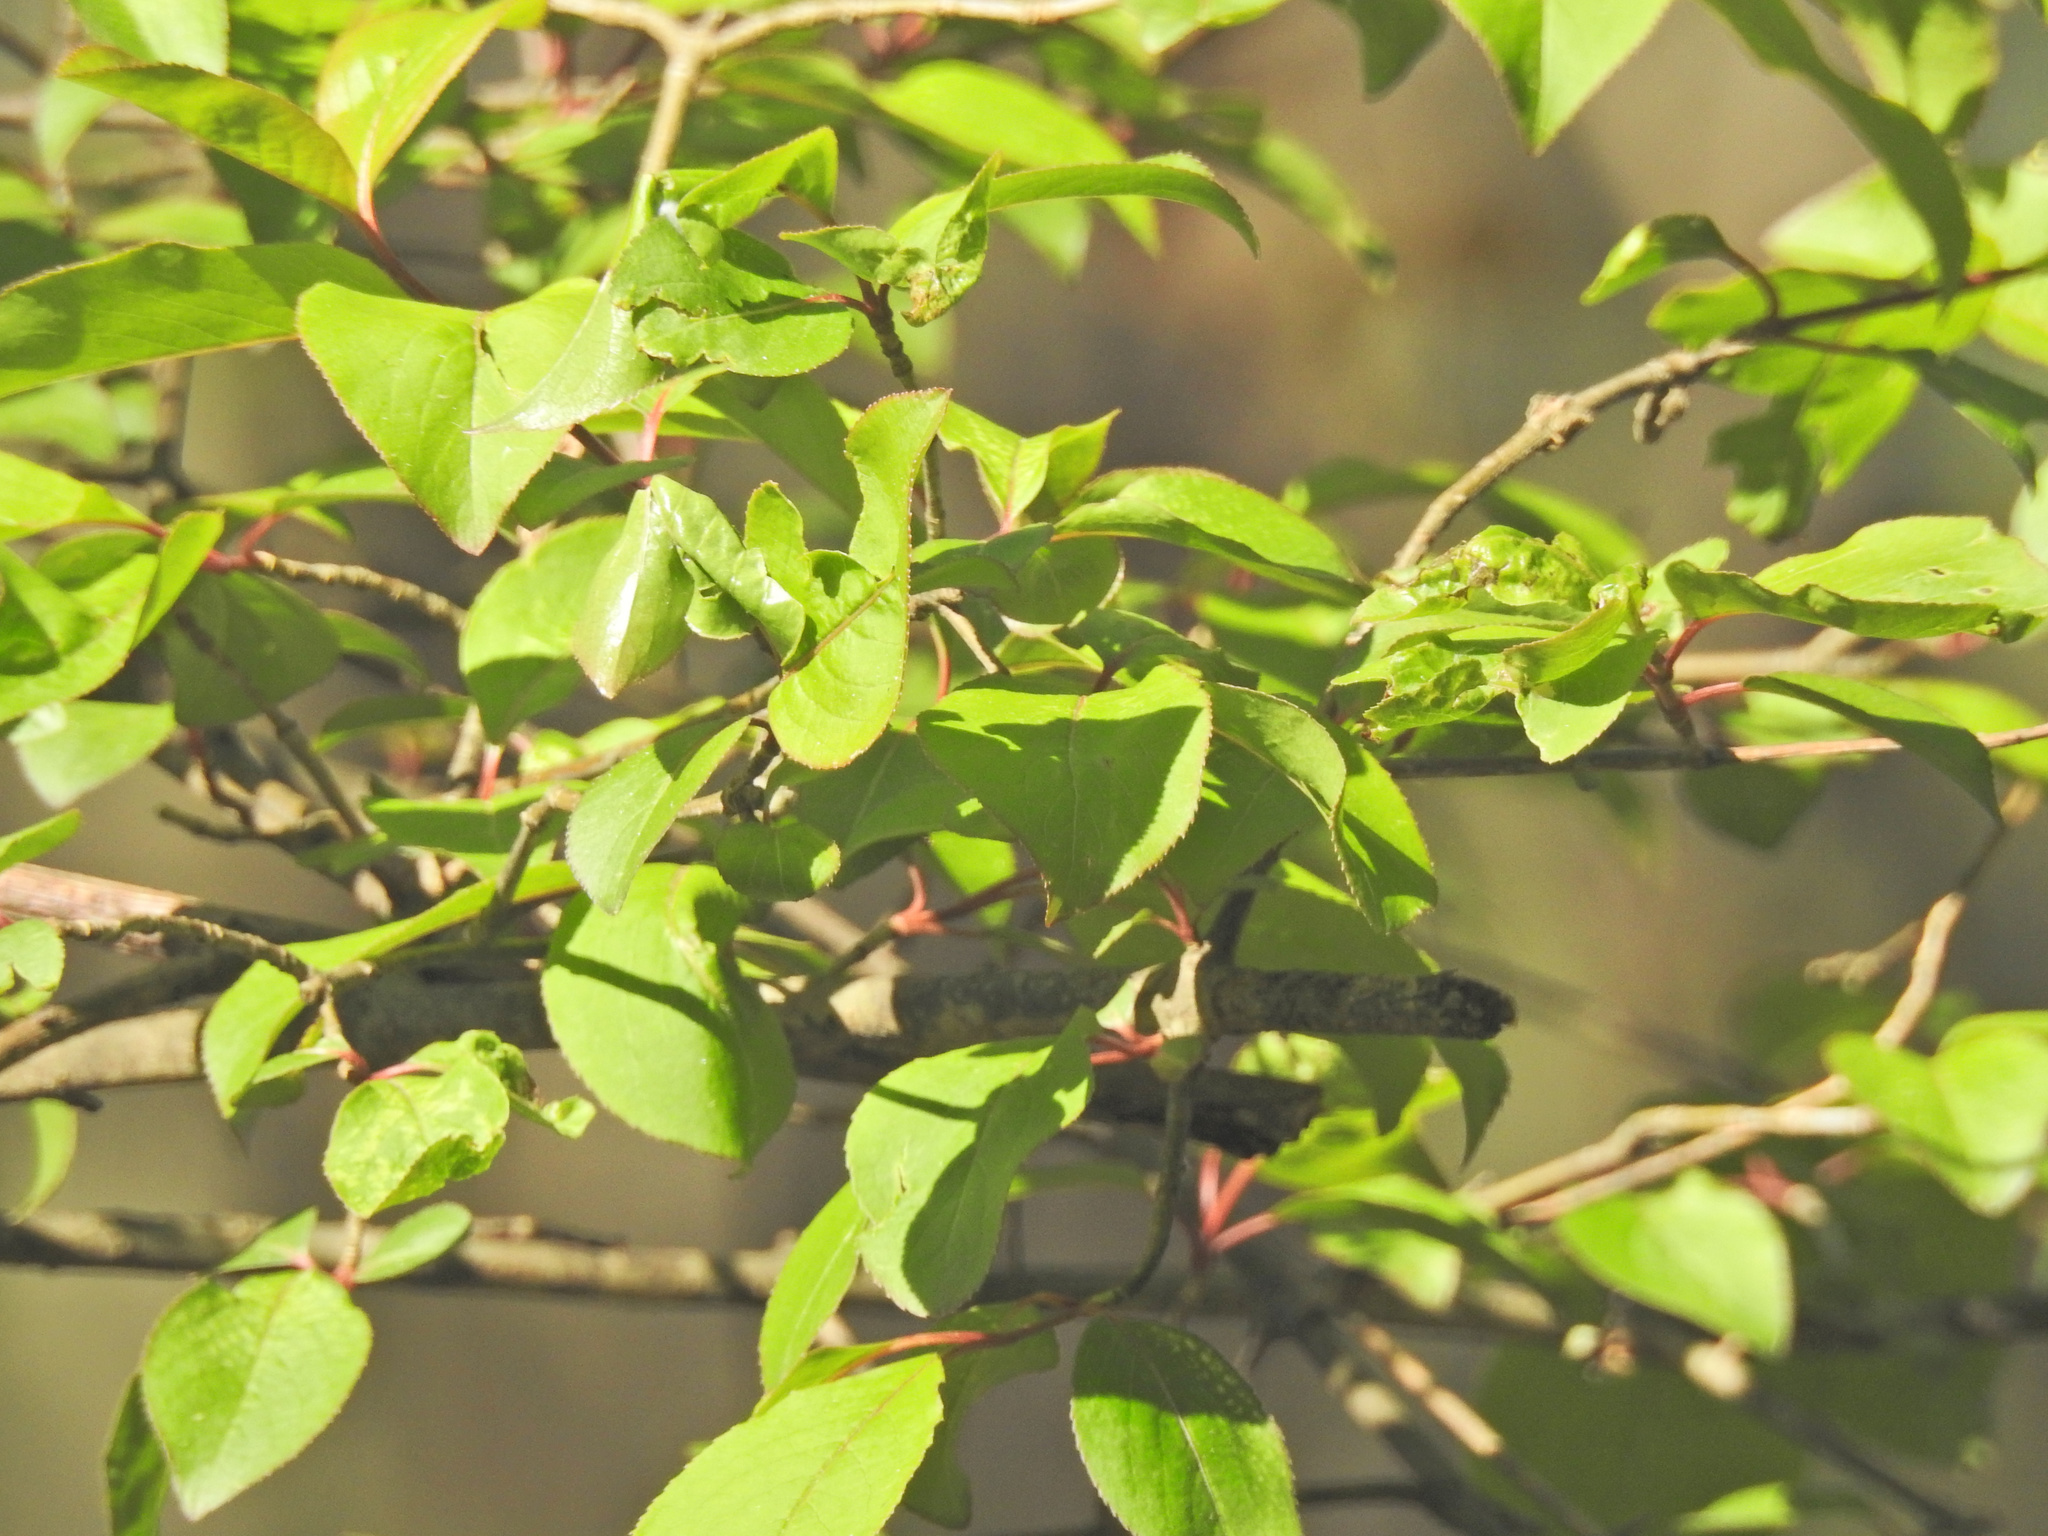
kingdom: Plantae
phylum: Tracheophyta
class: Magnoliopsida
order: Dipsacales
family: Viburnaceae
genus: Viburnum
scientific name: Viburnum prunifolium
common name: Black haw
